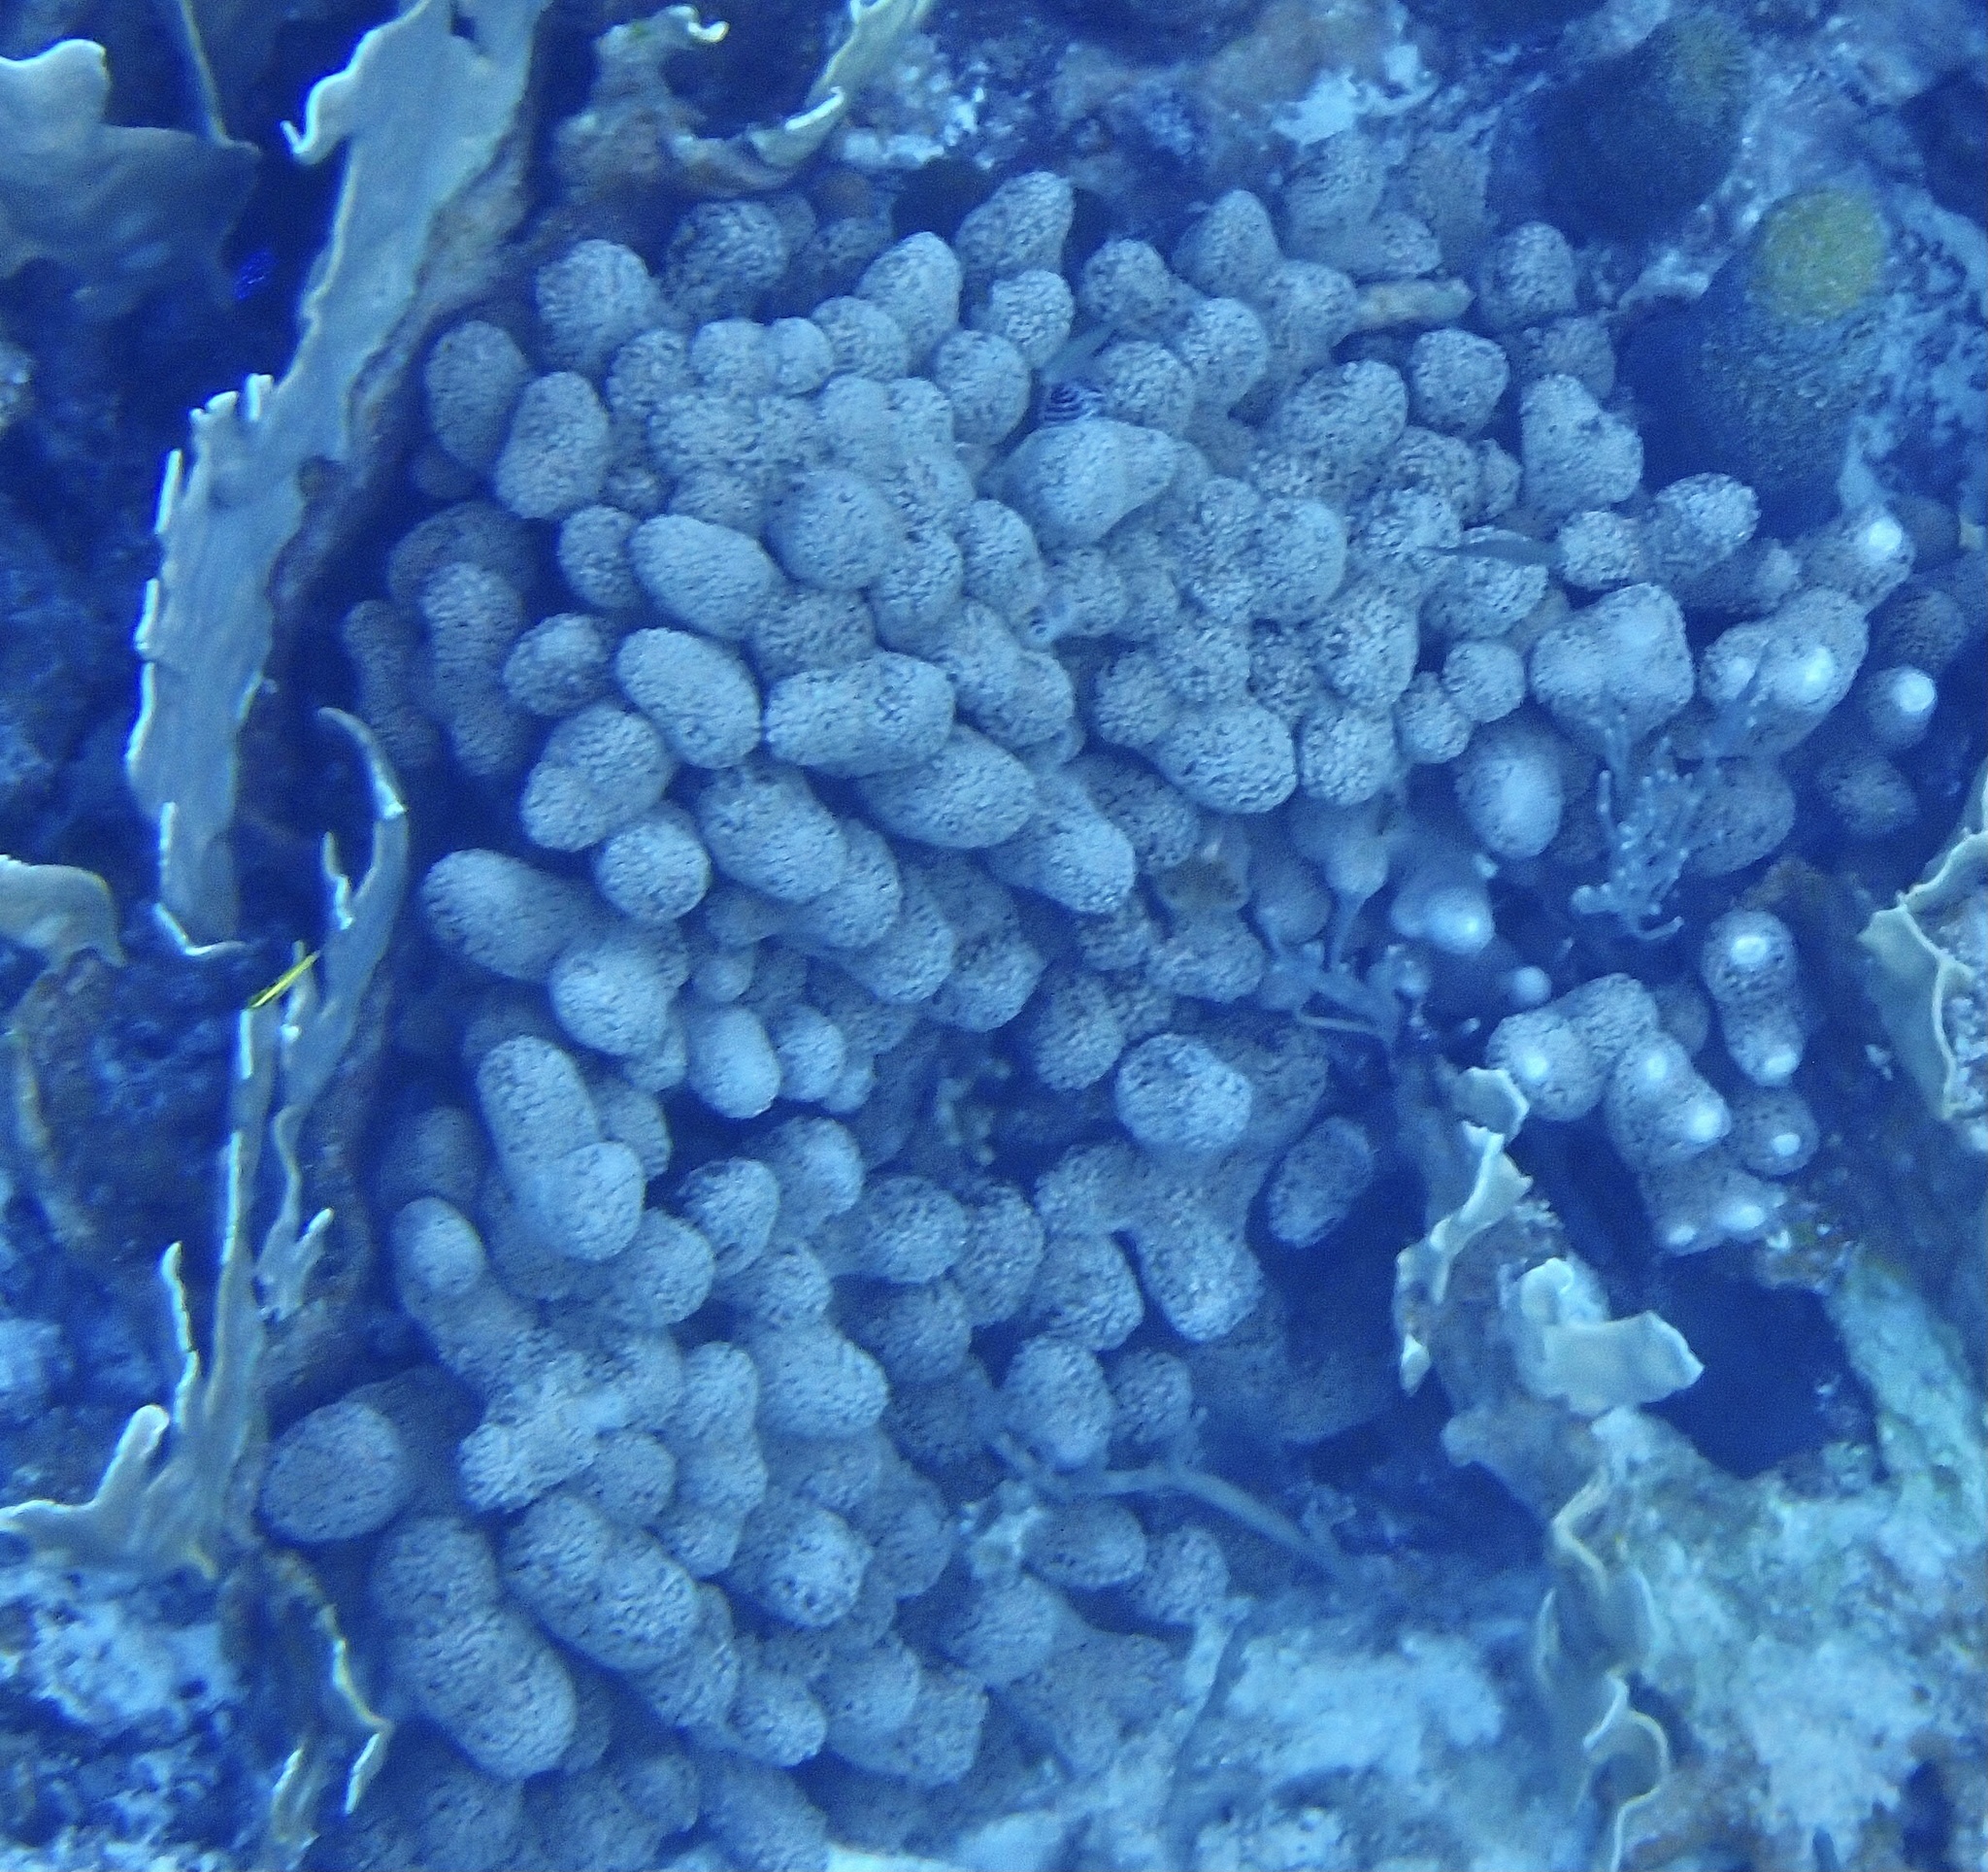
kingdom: Animalia
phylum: Cnidaria
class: Anthozoa
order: Scleractinia
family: Poritidae
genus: Porites
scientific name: Porites porites
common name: Finger coral
